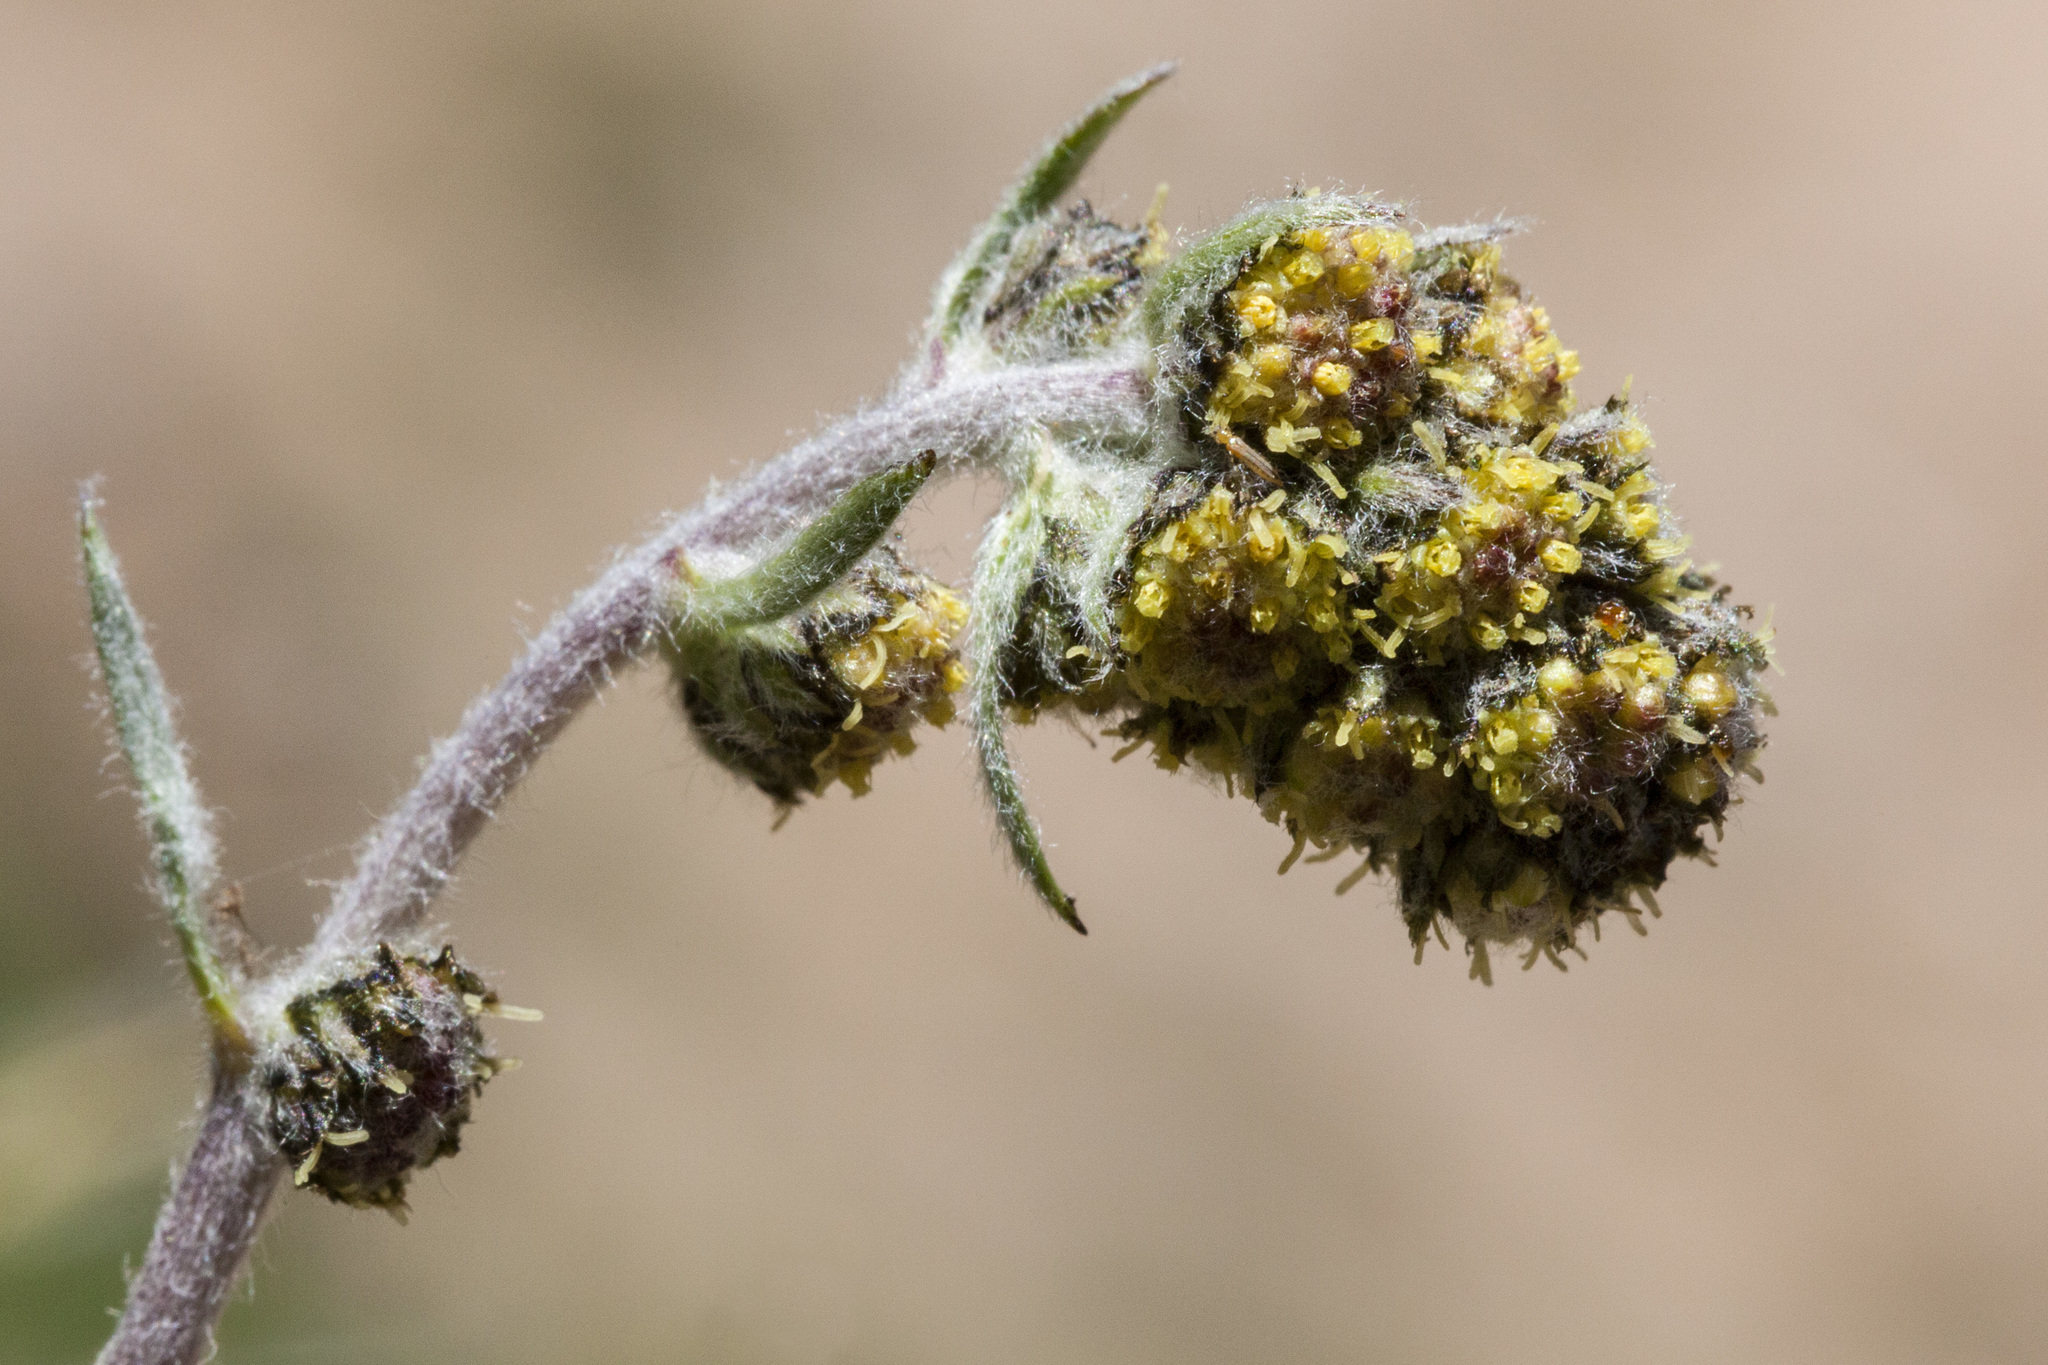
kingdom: Plantae
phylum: Tracheophyta
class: Magnoliopsida
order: Asterales
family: Asteraceae
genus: Artemisia
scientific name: Artemisia scopulorum
